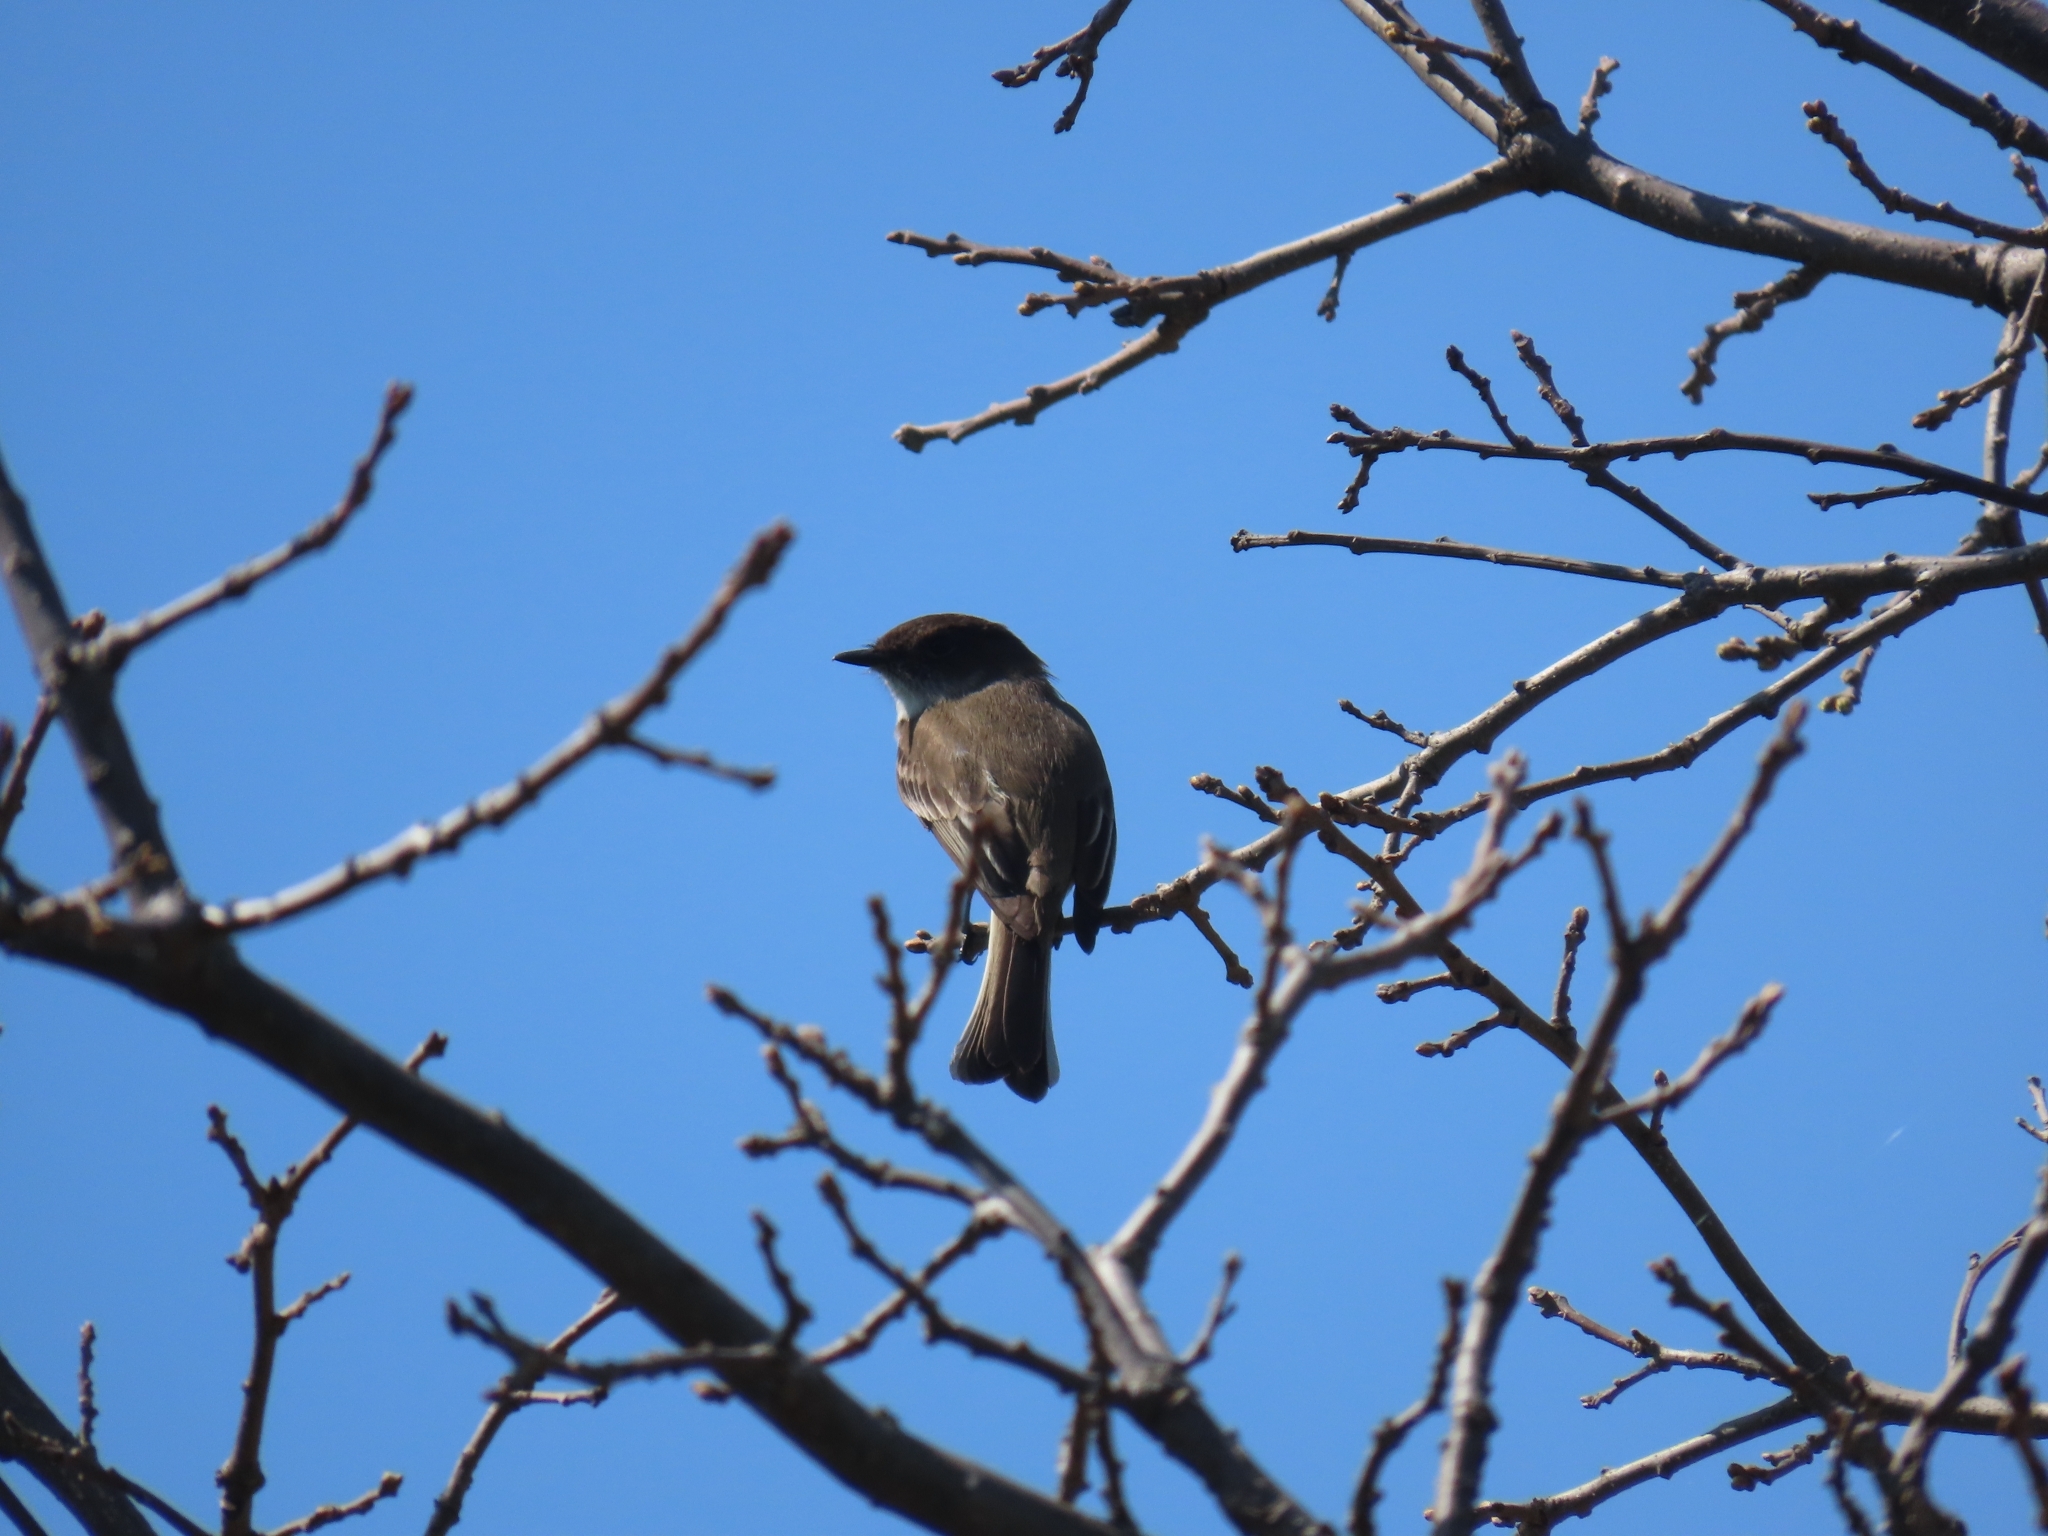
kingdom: Animalia
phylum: Chordata
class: Aves
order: Passeriformes
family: Tyrannidae
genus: Sayornis
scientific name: Sayornis phoebe
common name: Eastern phoebe
